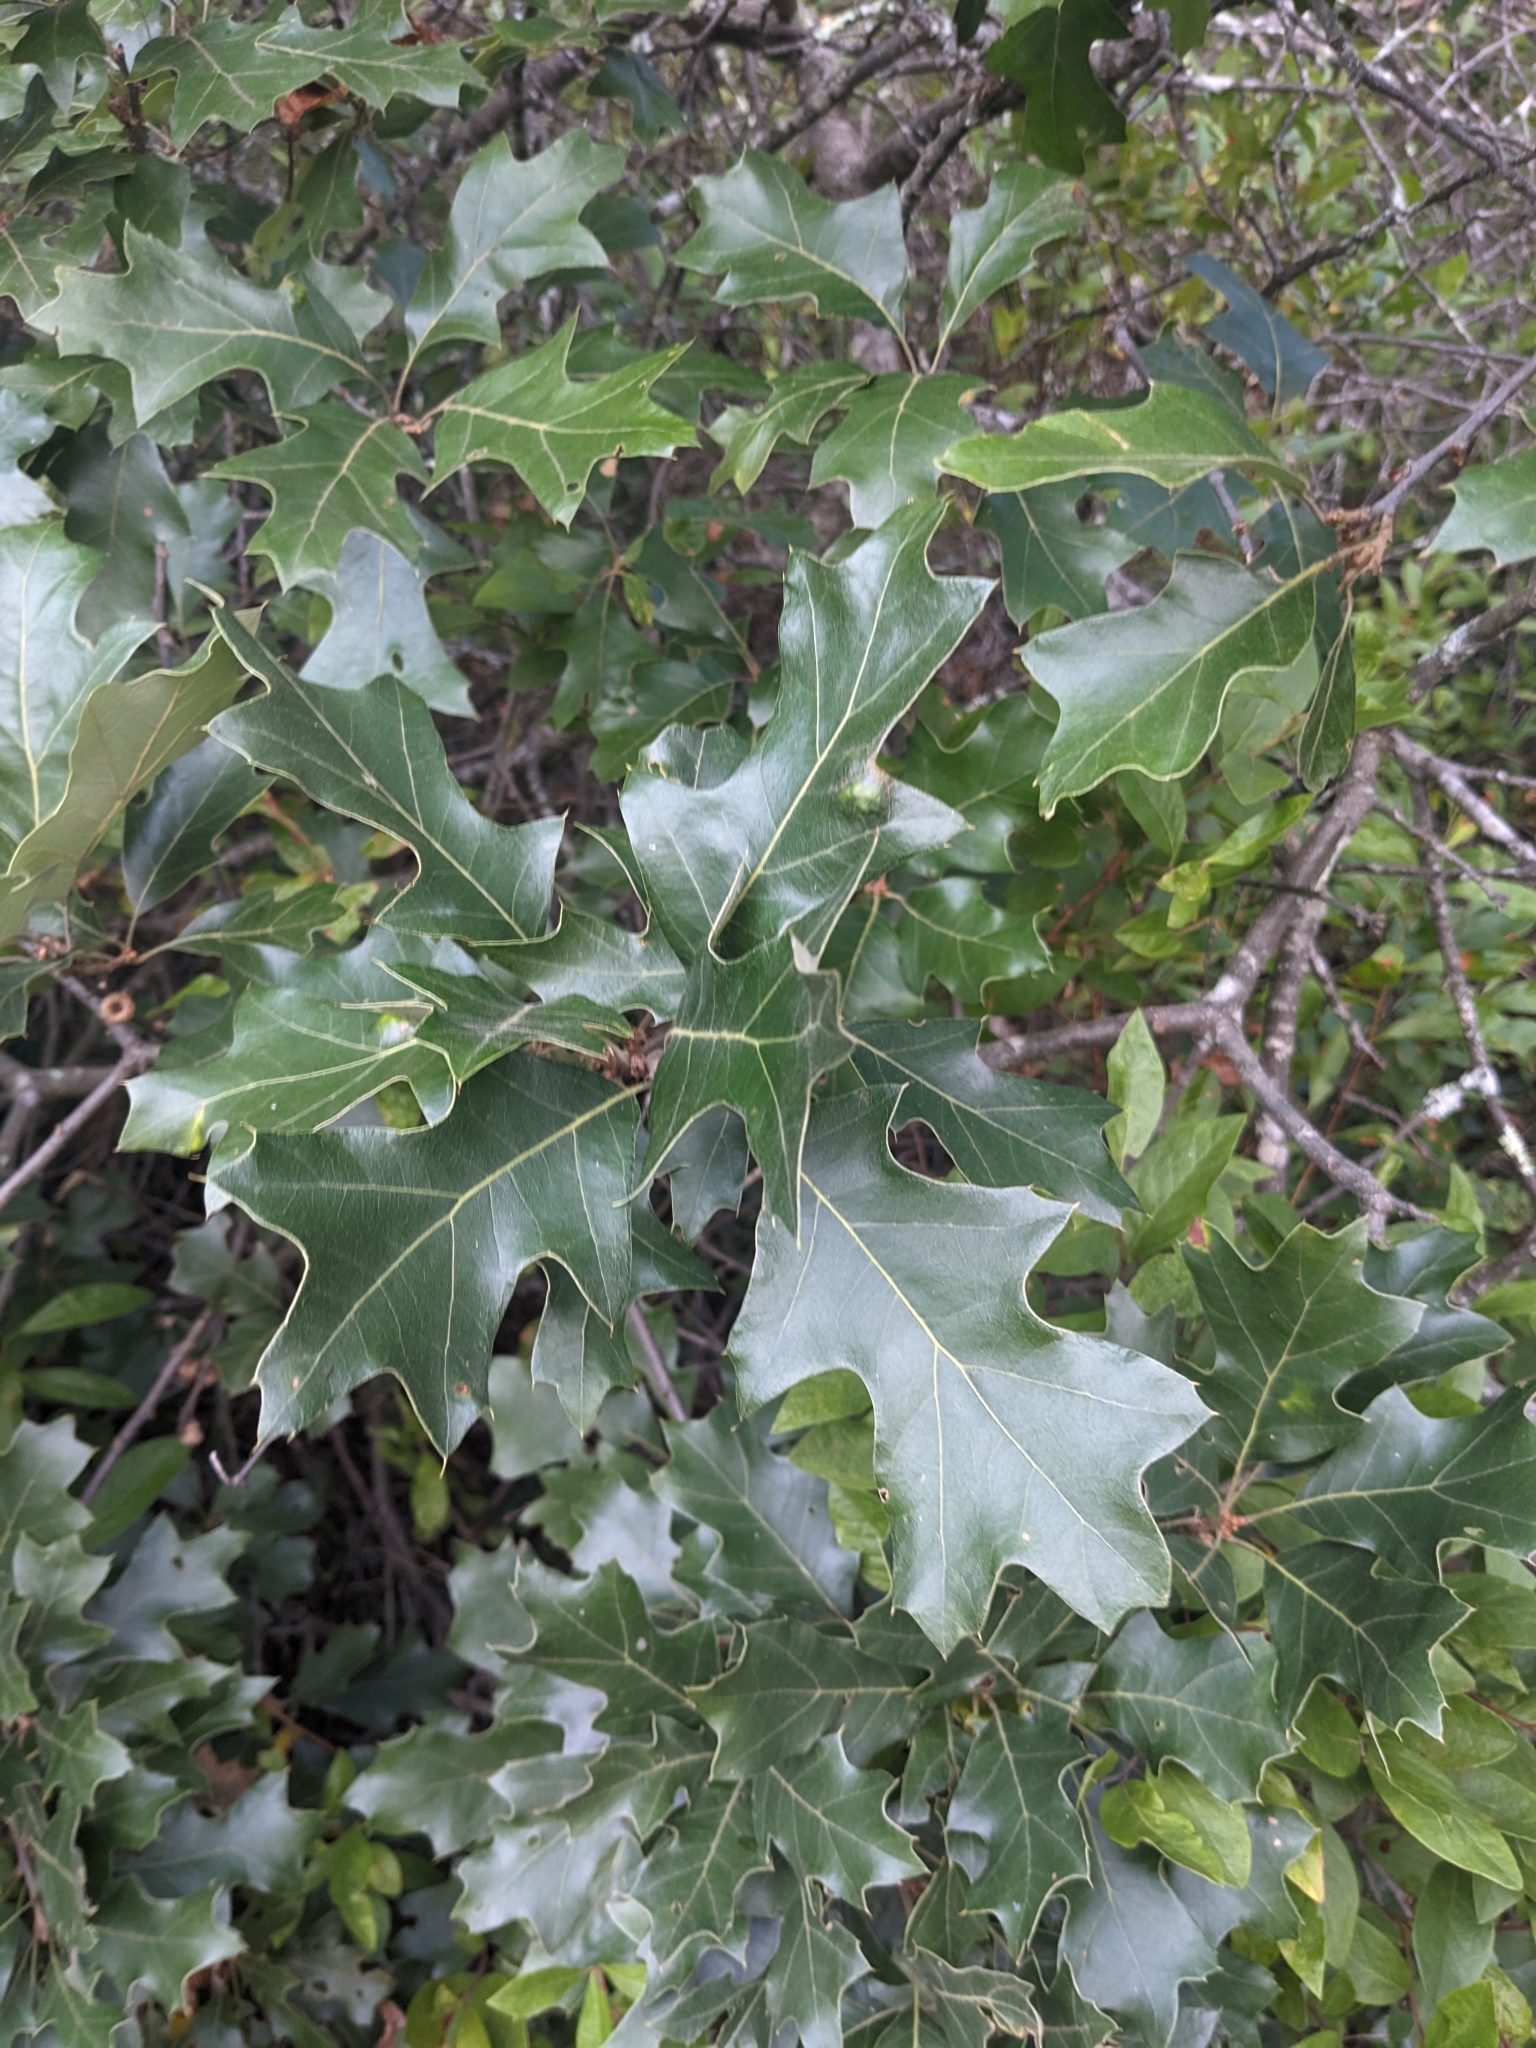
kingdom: Plantae
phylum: Tracheophyta
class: Magnoliopsida
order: Fagales
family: Fagaceae
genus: Quercus
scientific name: Quercus ilicifolia
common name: Bear oak
